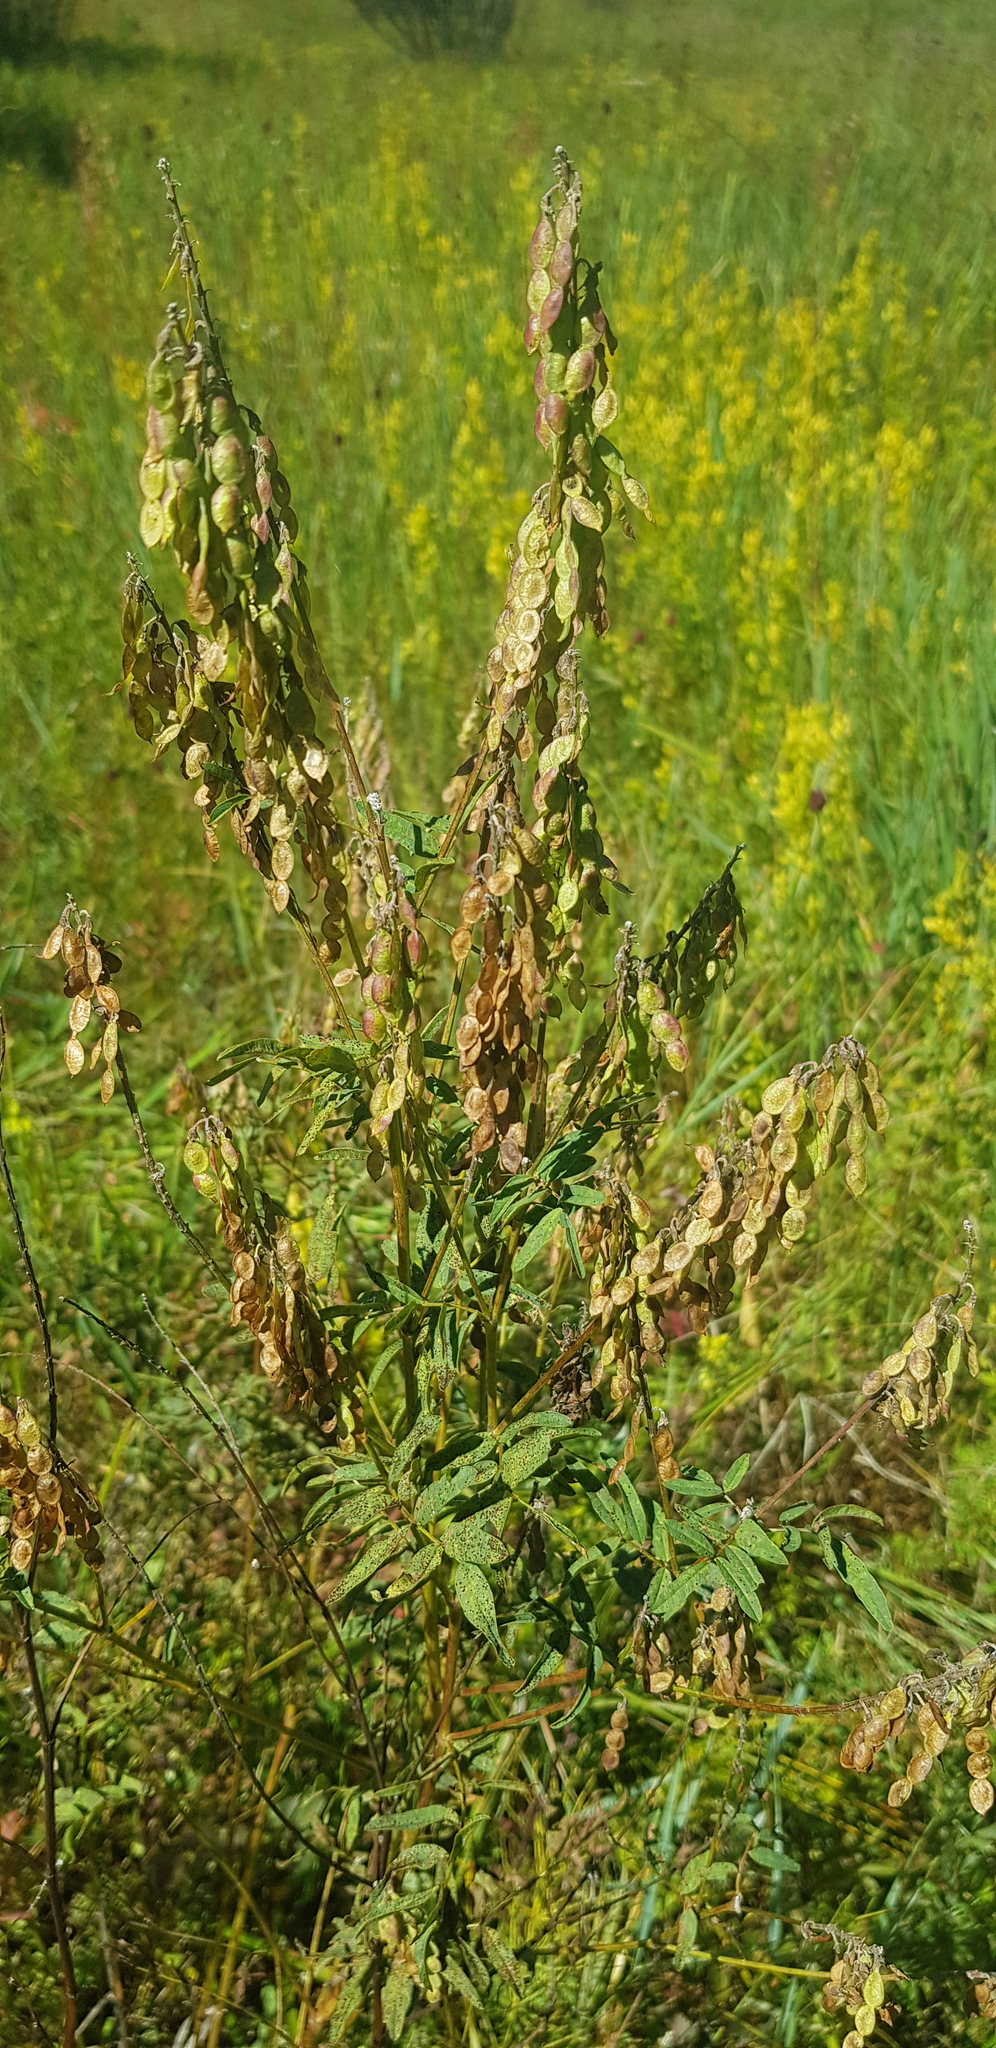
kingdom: Plantae
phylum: Tracheophyta
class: Magnoliopsida
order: Fabales
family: Fabaceae
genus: Hedysarum
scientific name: Hedysarum alpinum
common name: Alpine sweet-vetch
